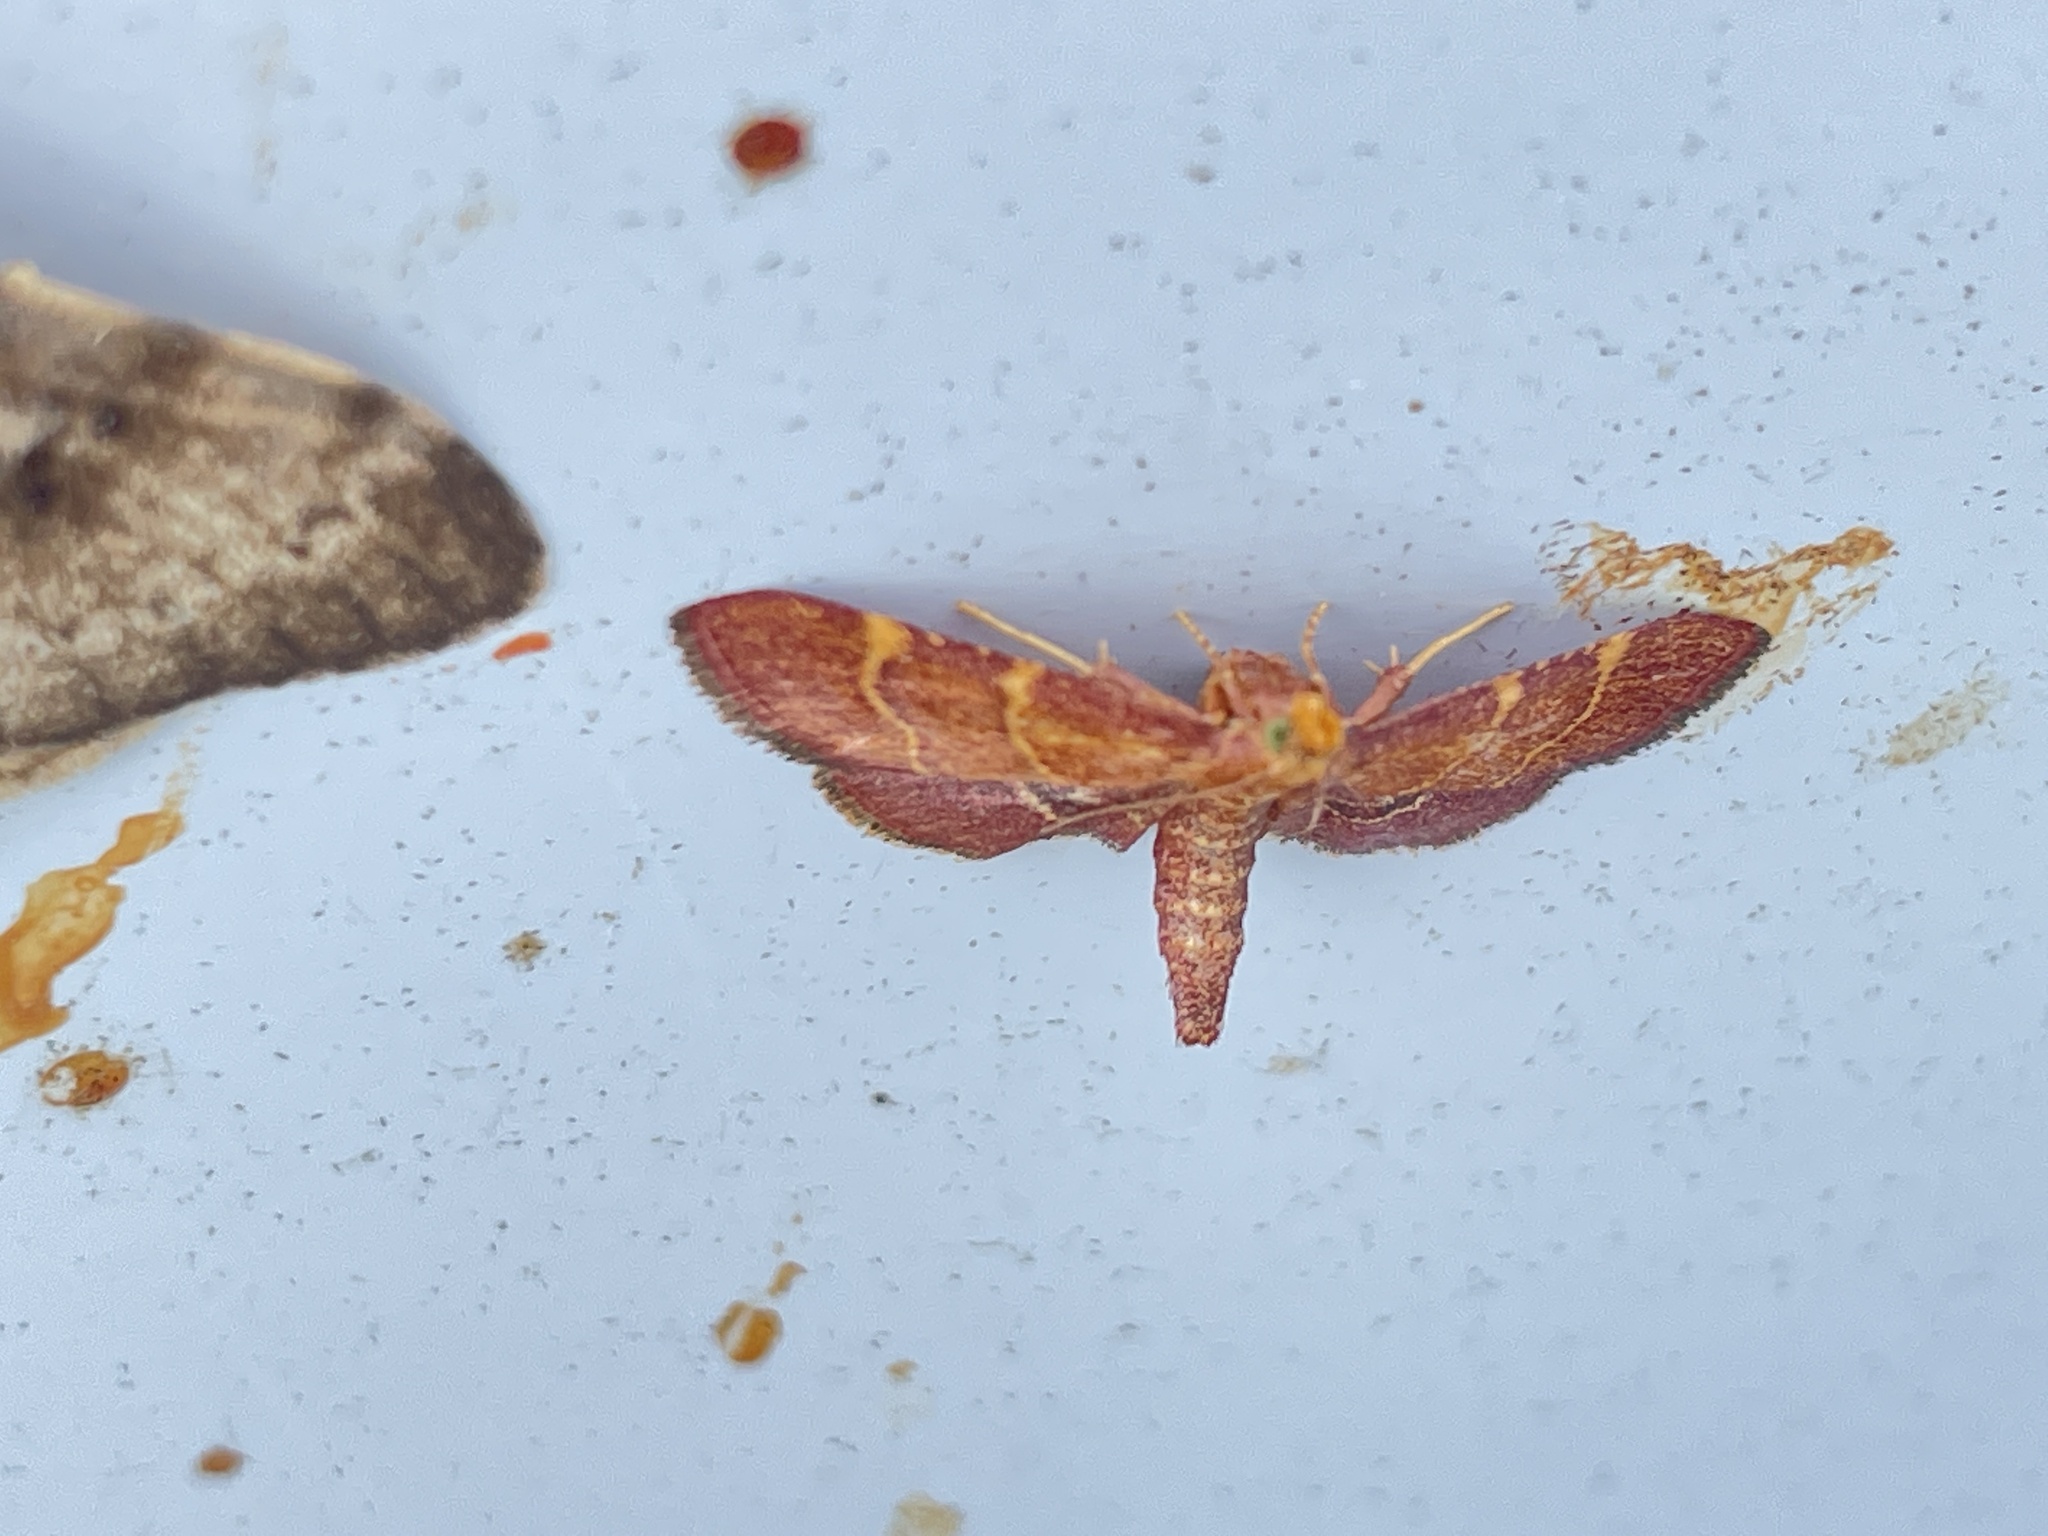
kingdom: Animalia
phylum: Arthropoda
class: Insecta
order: Lepidoptera
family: Pyralidae
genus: Herculia
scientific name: Herculia rubidalis
